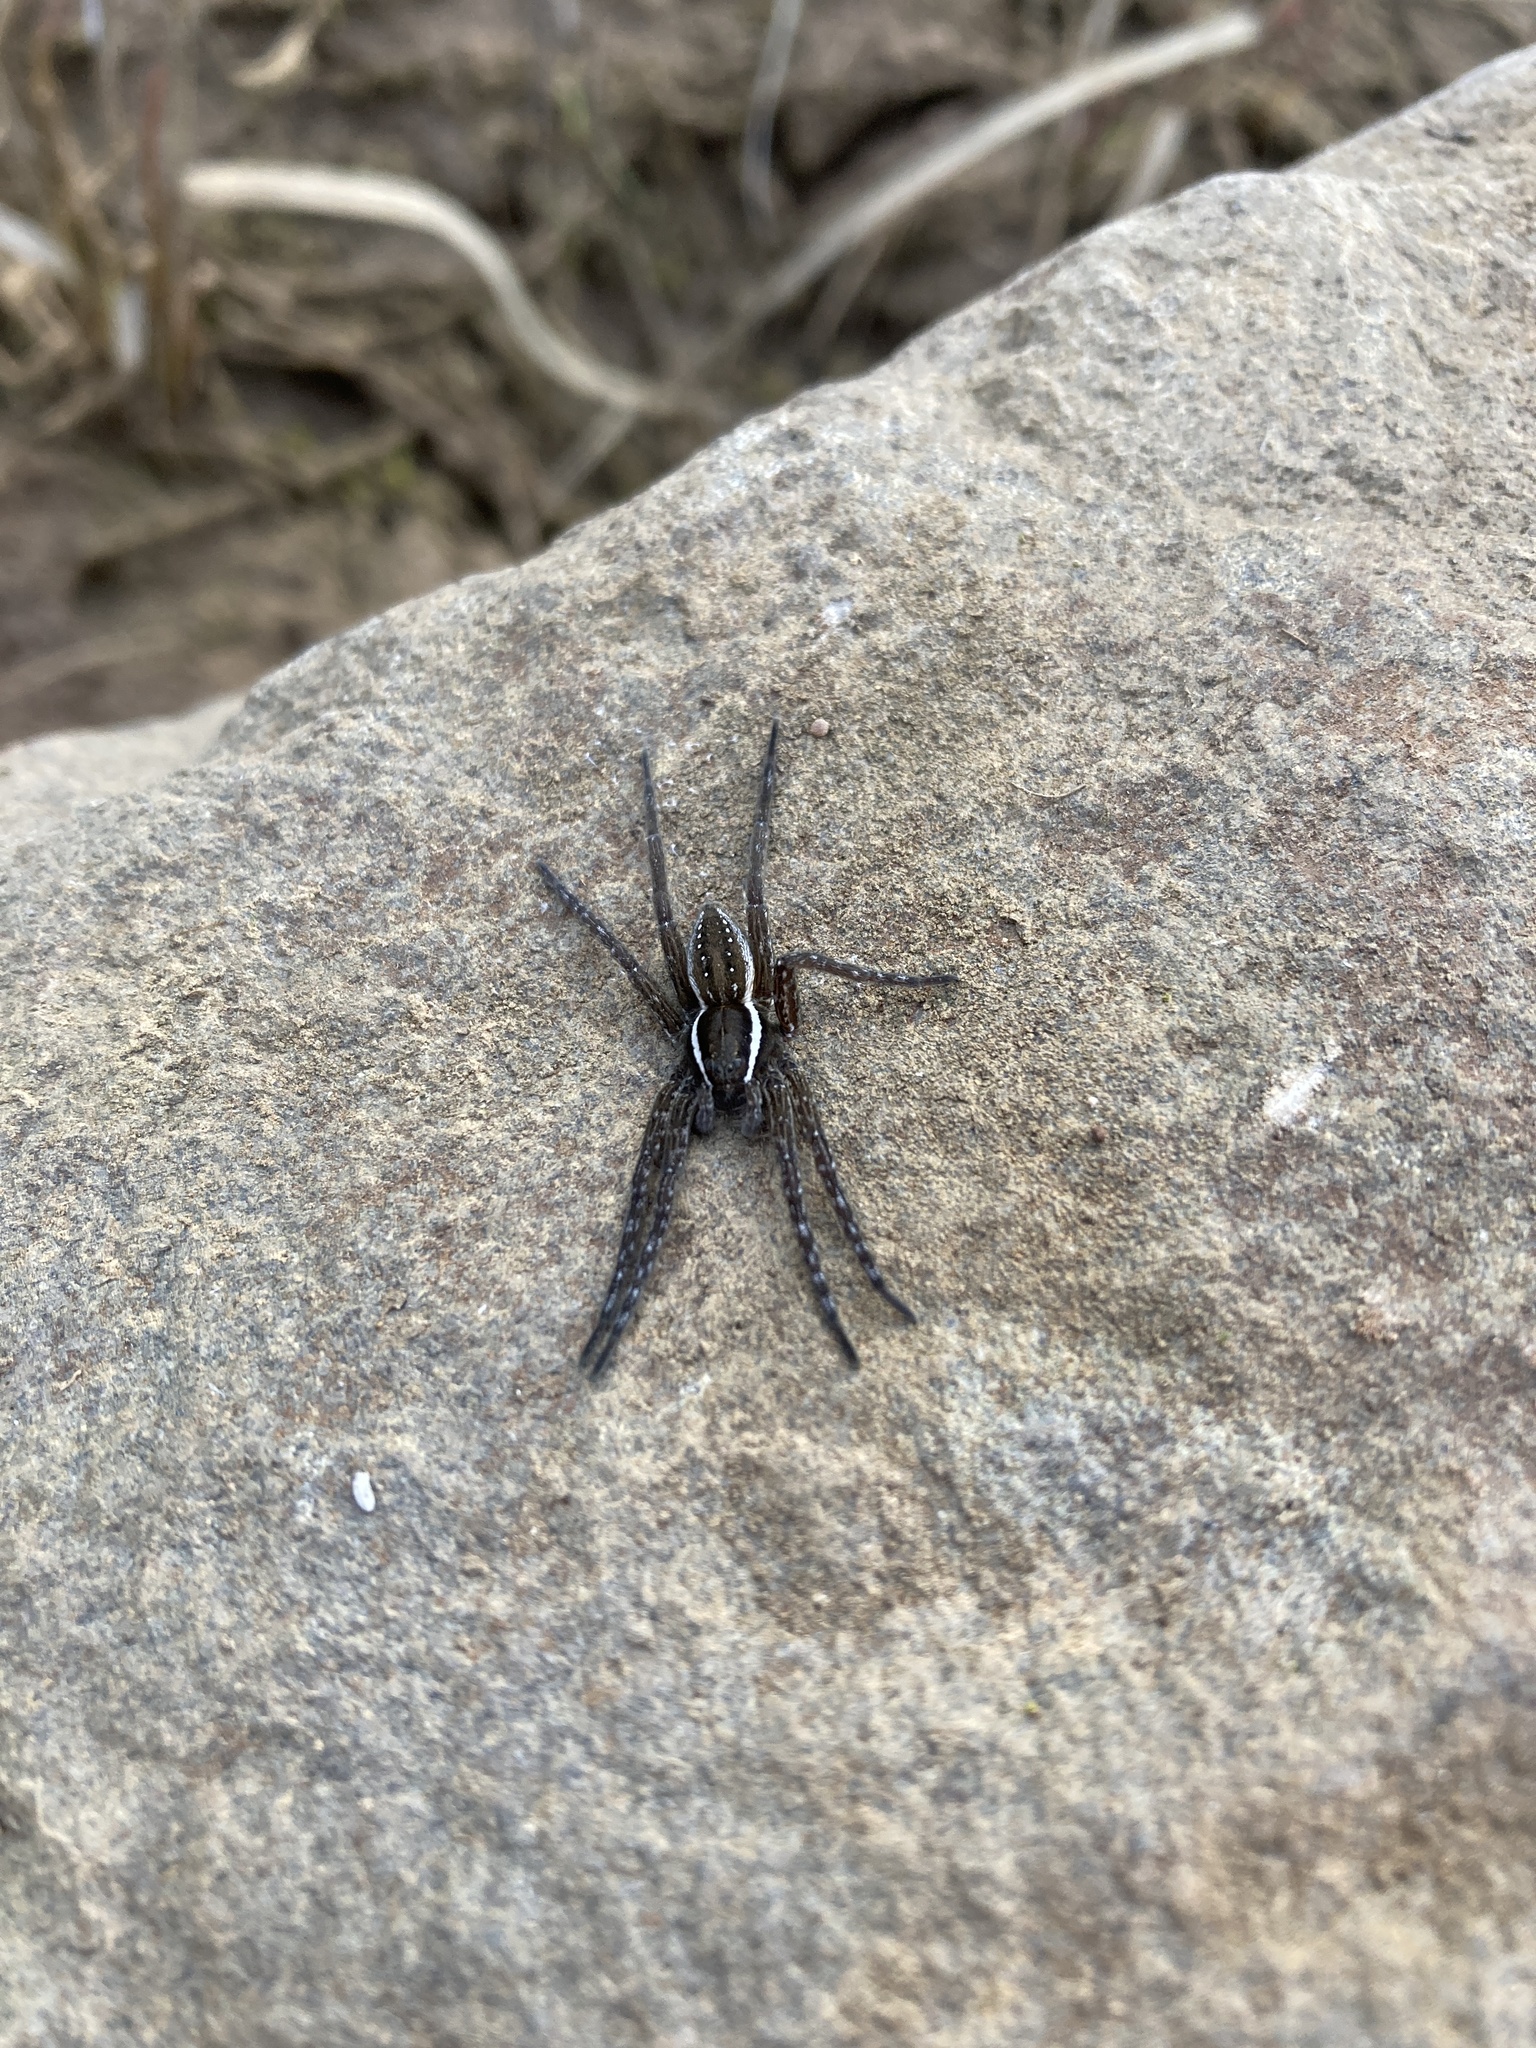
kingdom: Animalia
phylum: Arthropoda
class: Arachnida
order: Araneae
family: Pisauridae
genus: Dolomedes
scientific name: Dolomedes triton
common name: Six-spotted fishing spider
